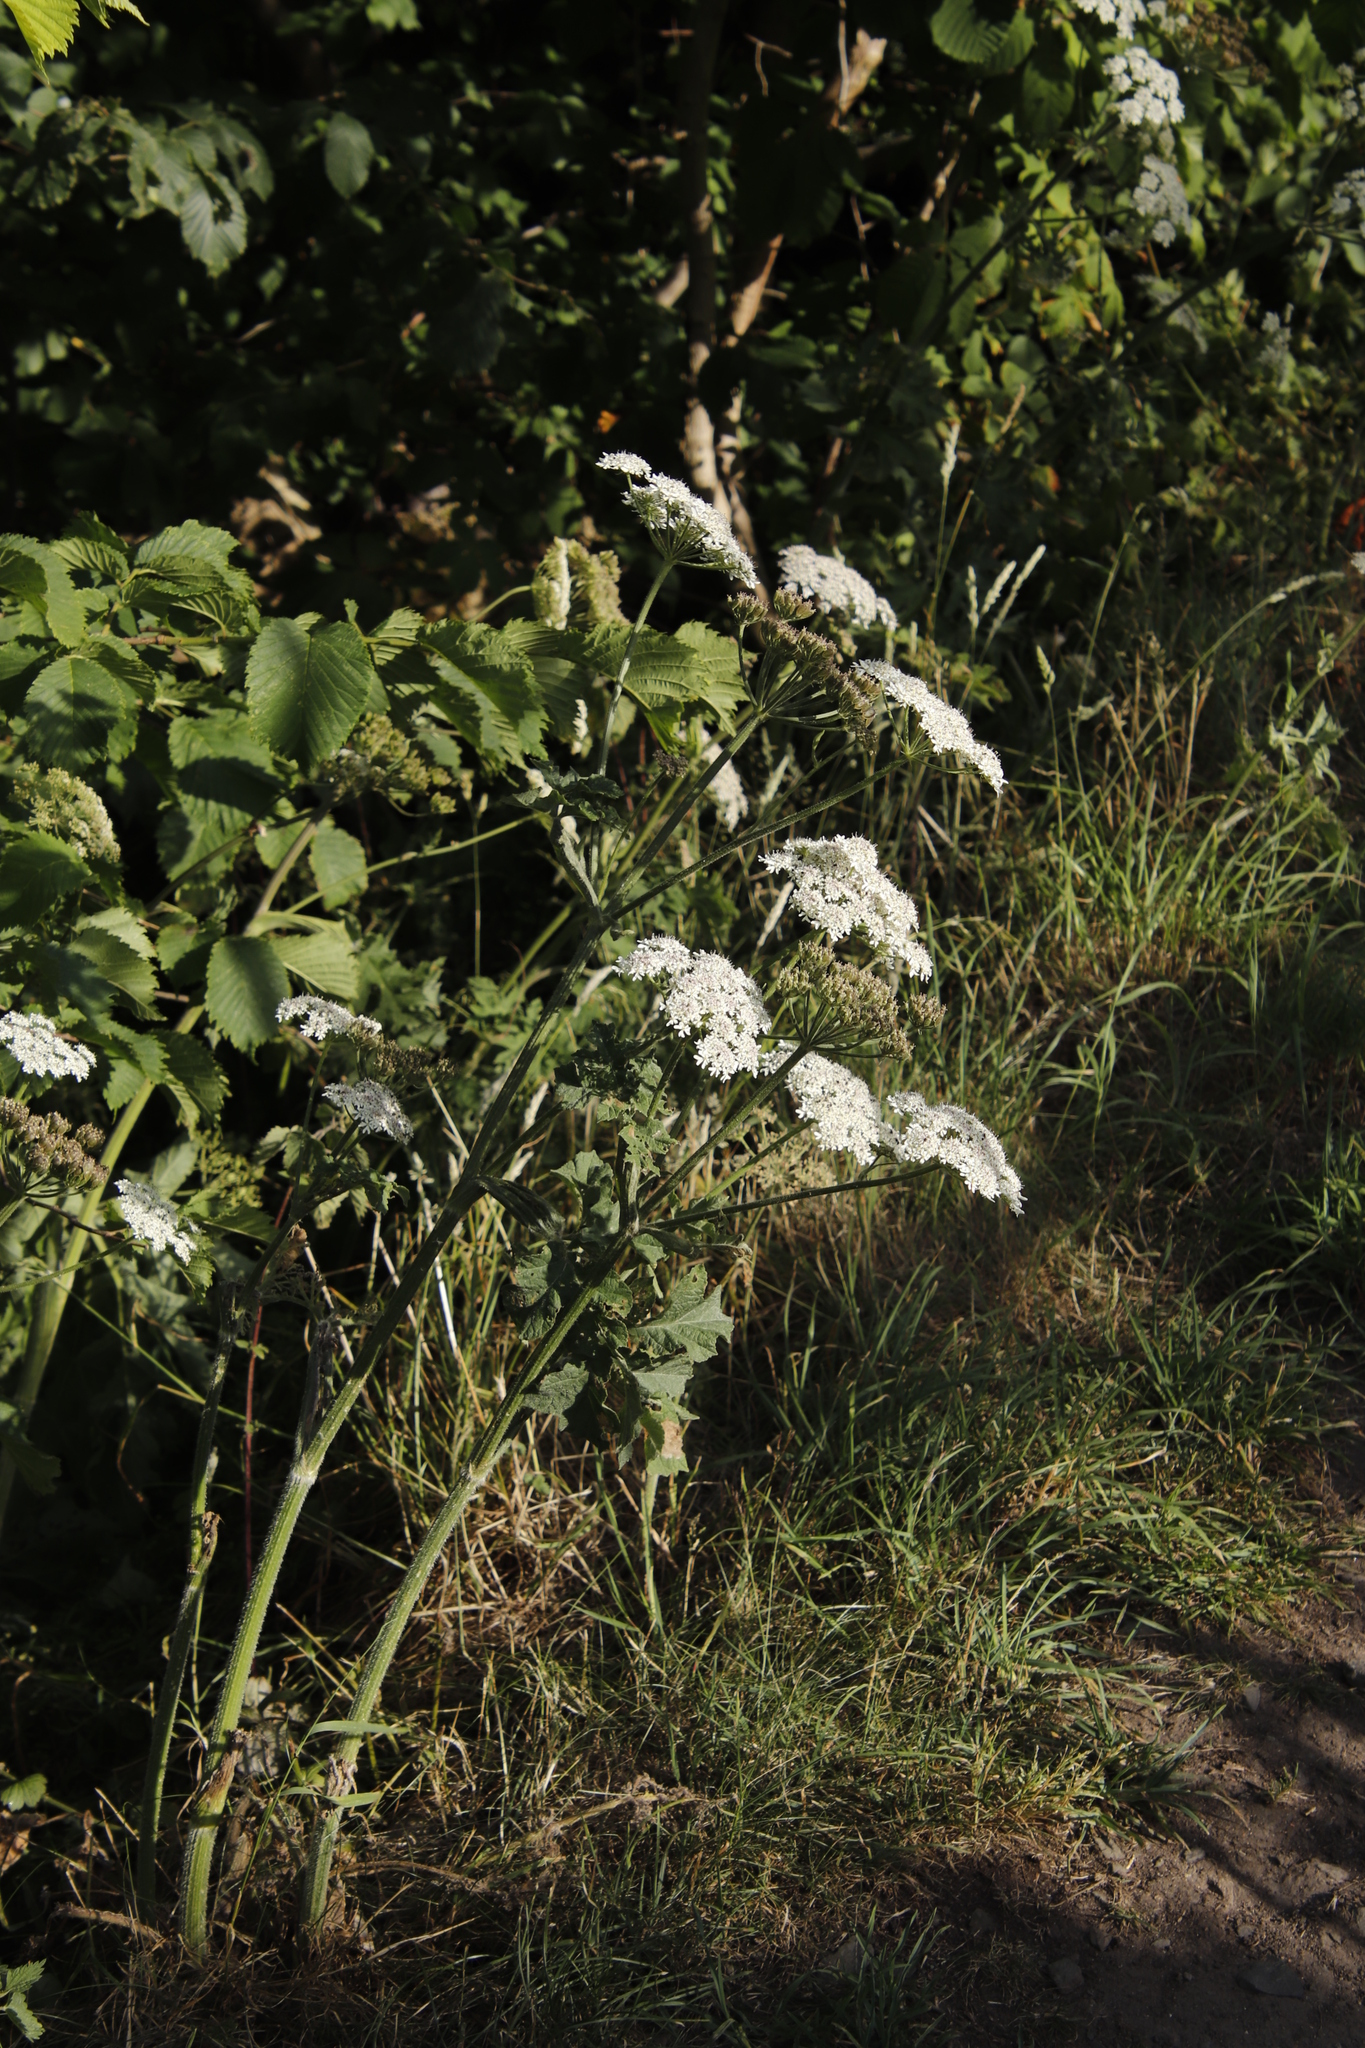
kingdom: Plantae
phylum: Tracheophyta
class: Magnoliopsida
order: Apiales
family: Apiaceae
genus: Heracleum
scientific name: Heracleum sphondylium
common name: Hogweed
